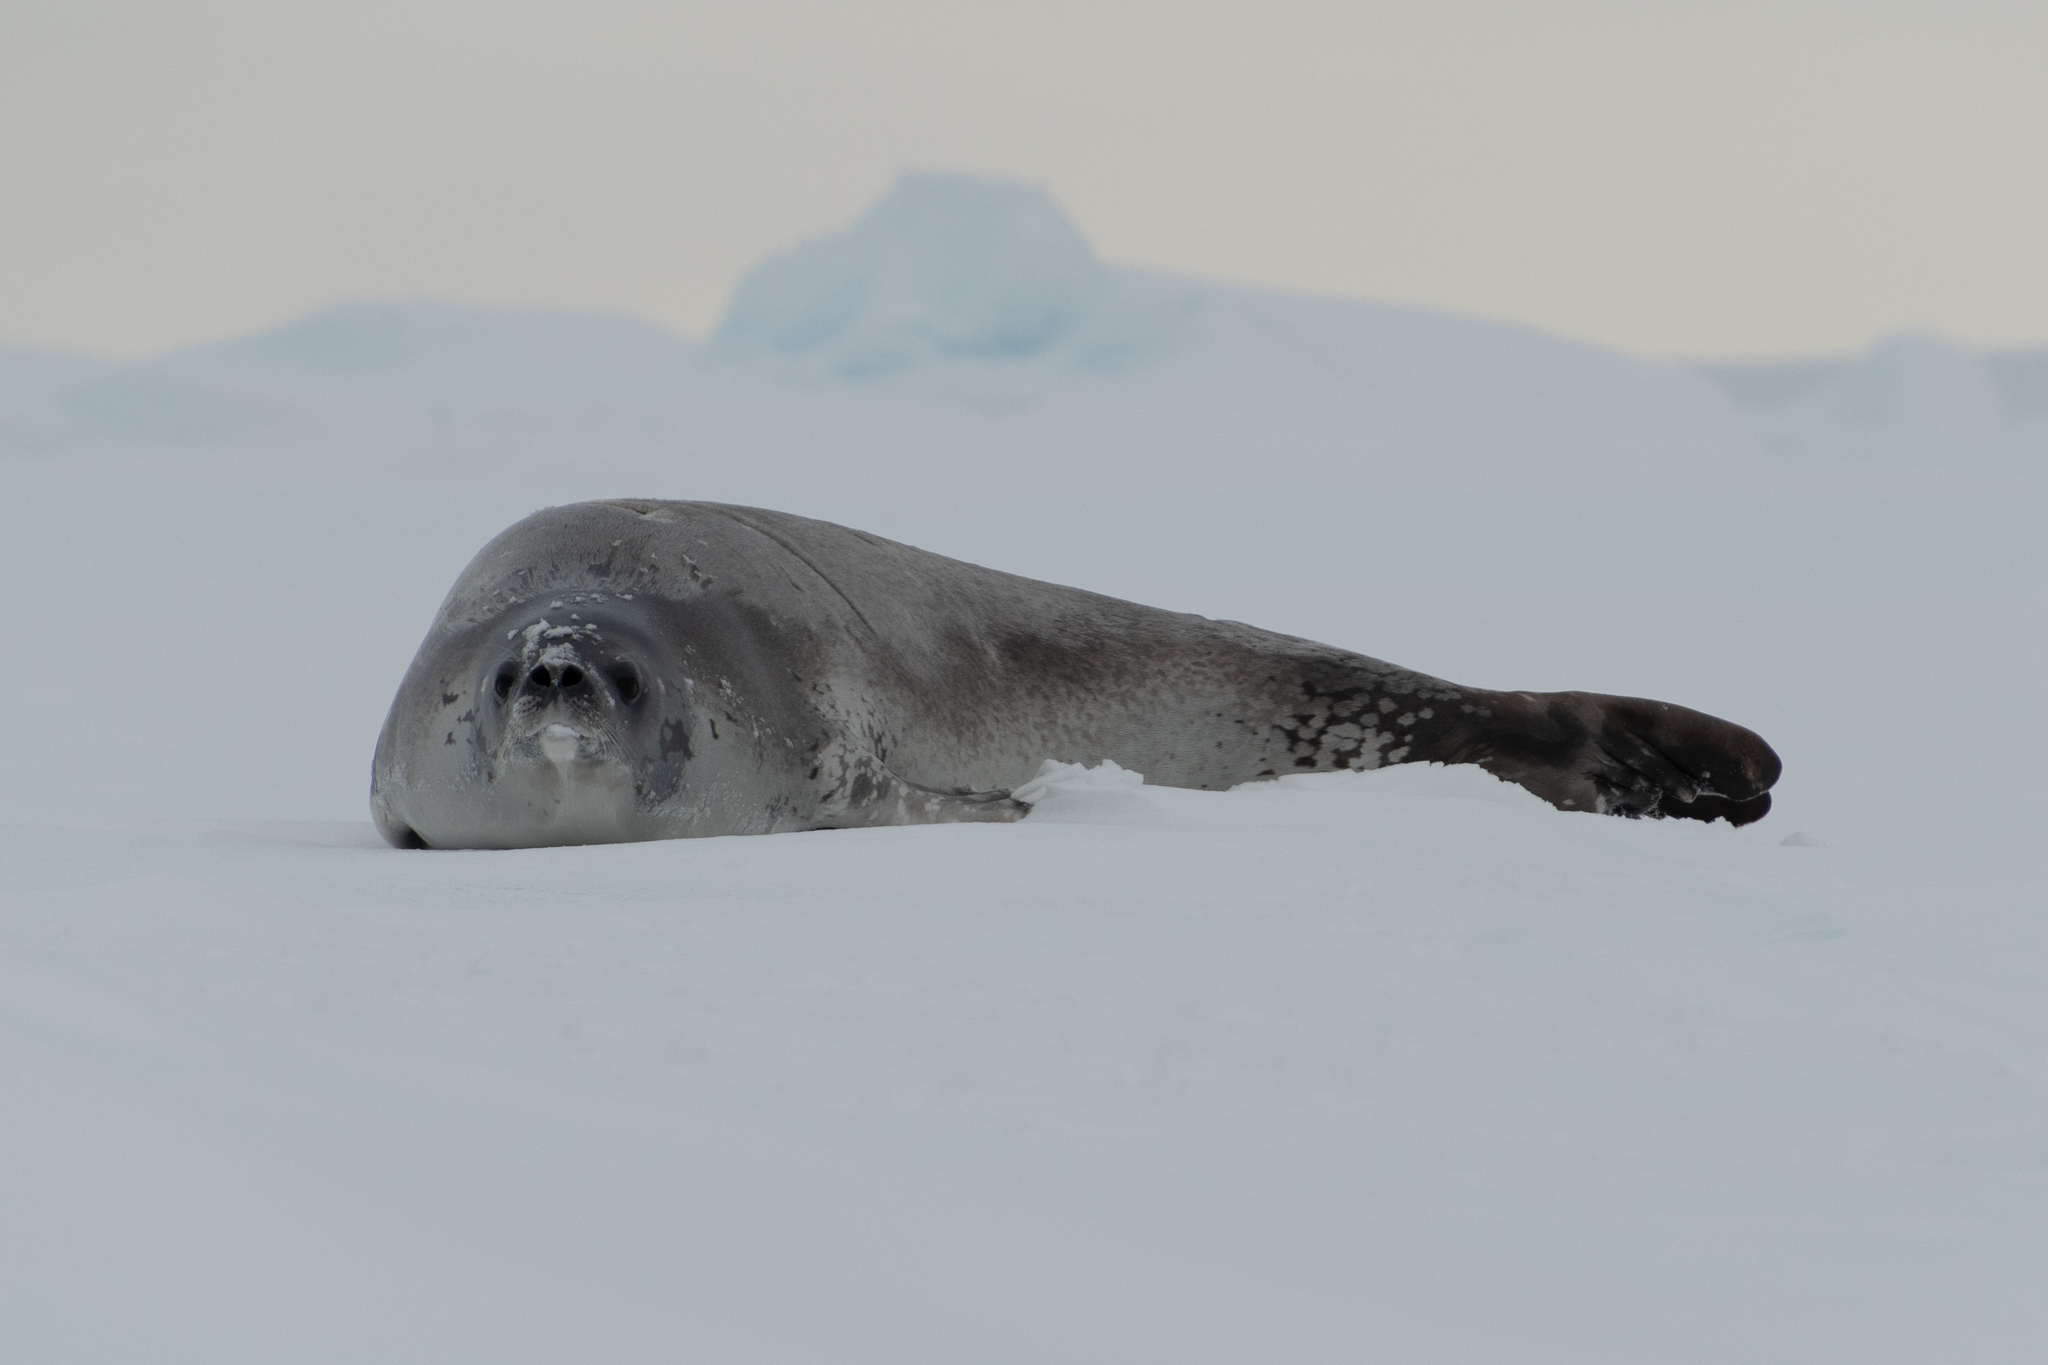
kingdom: Animalia
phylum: Chordata
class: Mammalia
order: Carnivora
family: Phocidae
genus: Lobodon
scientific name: Lobodon carcinophaga
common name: Crabeater seal
